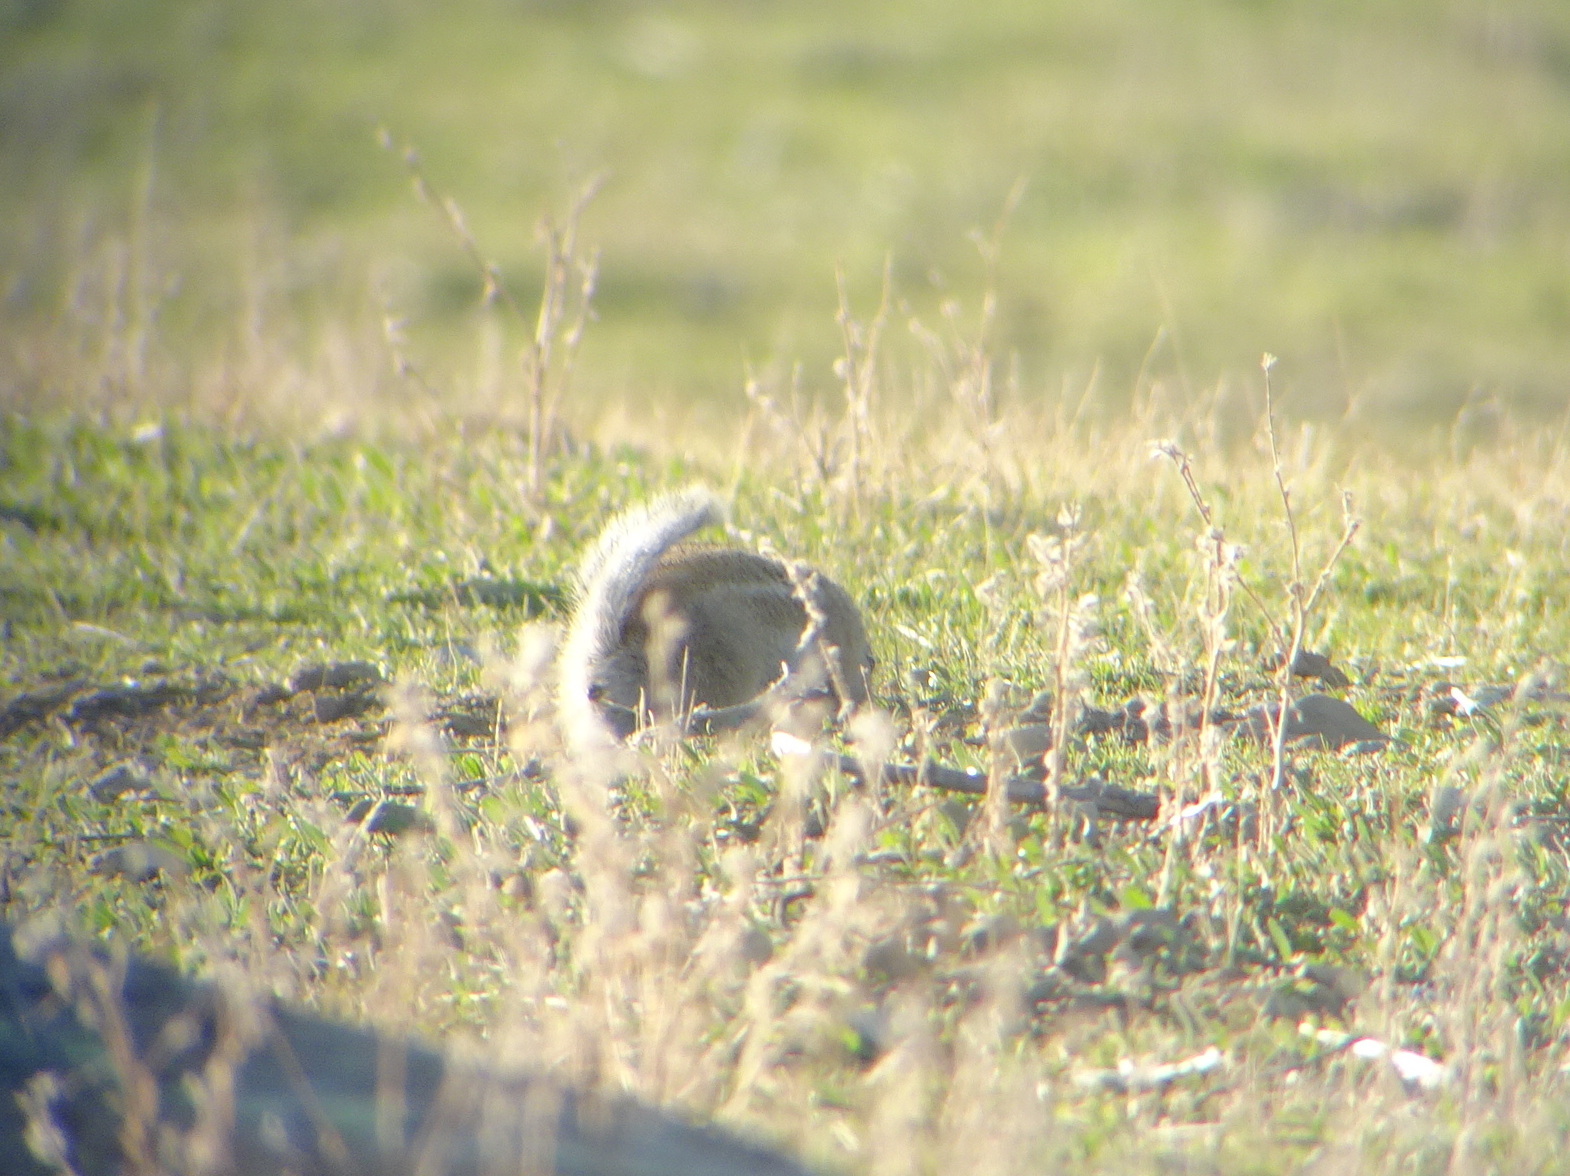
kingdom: Animalia
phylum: Chordata
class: Mammalia
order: Rodentia
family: Sciuridae
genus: Ammospermophilus
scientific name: Ammospermophilus nelsoni
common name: Nelson's antelope squirrel
